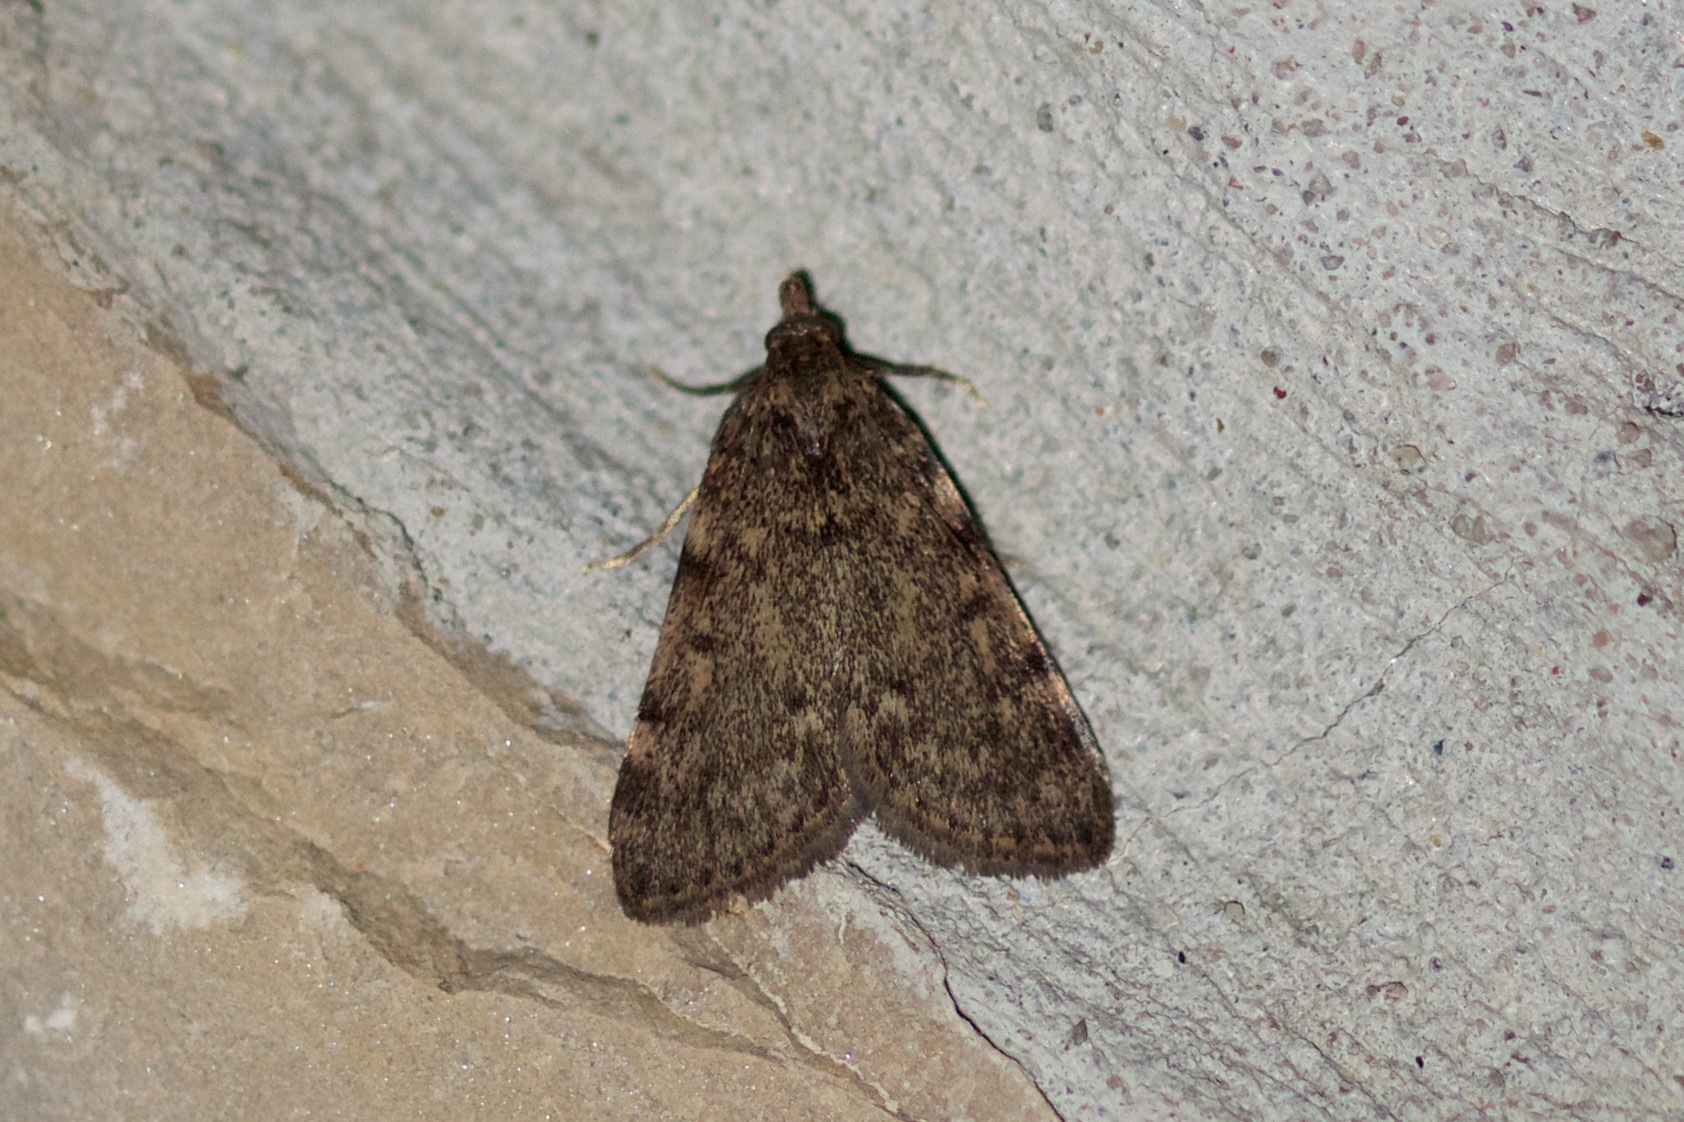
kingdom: Animalia
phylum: Arthropoda
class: Insecta
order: Lepidoptera
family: Pyralidae
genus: Aglossa
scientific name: Aglossa pinguinalis
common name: Large tabby
